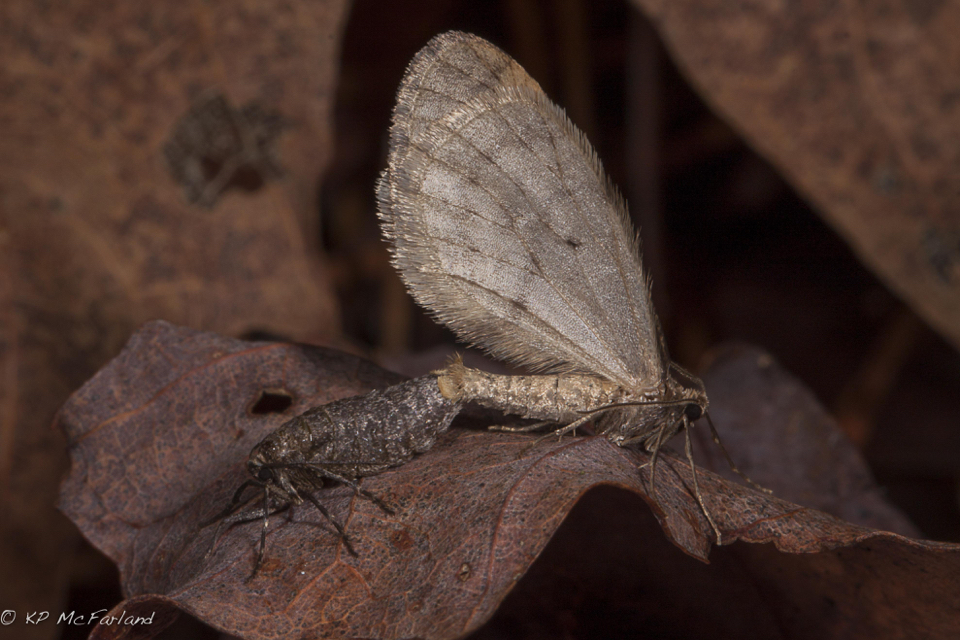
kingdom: Animalia
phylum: Arthropoda
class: Insecta
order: Lepidoptera
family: Geometridae
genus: Operophtera
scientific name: Operophtera bruceata
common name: Bruce spanworm
